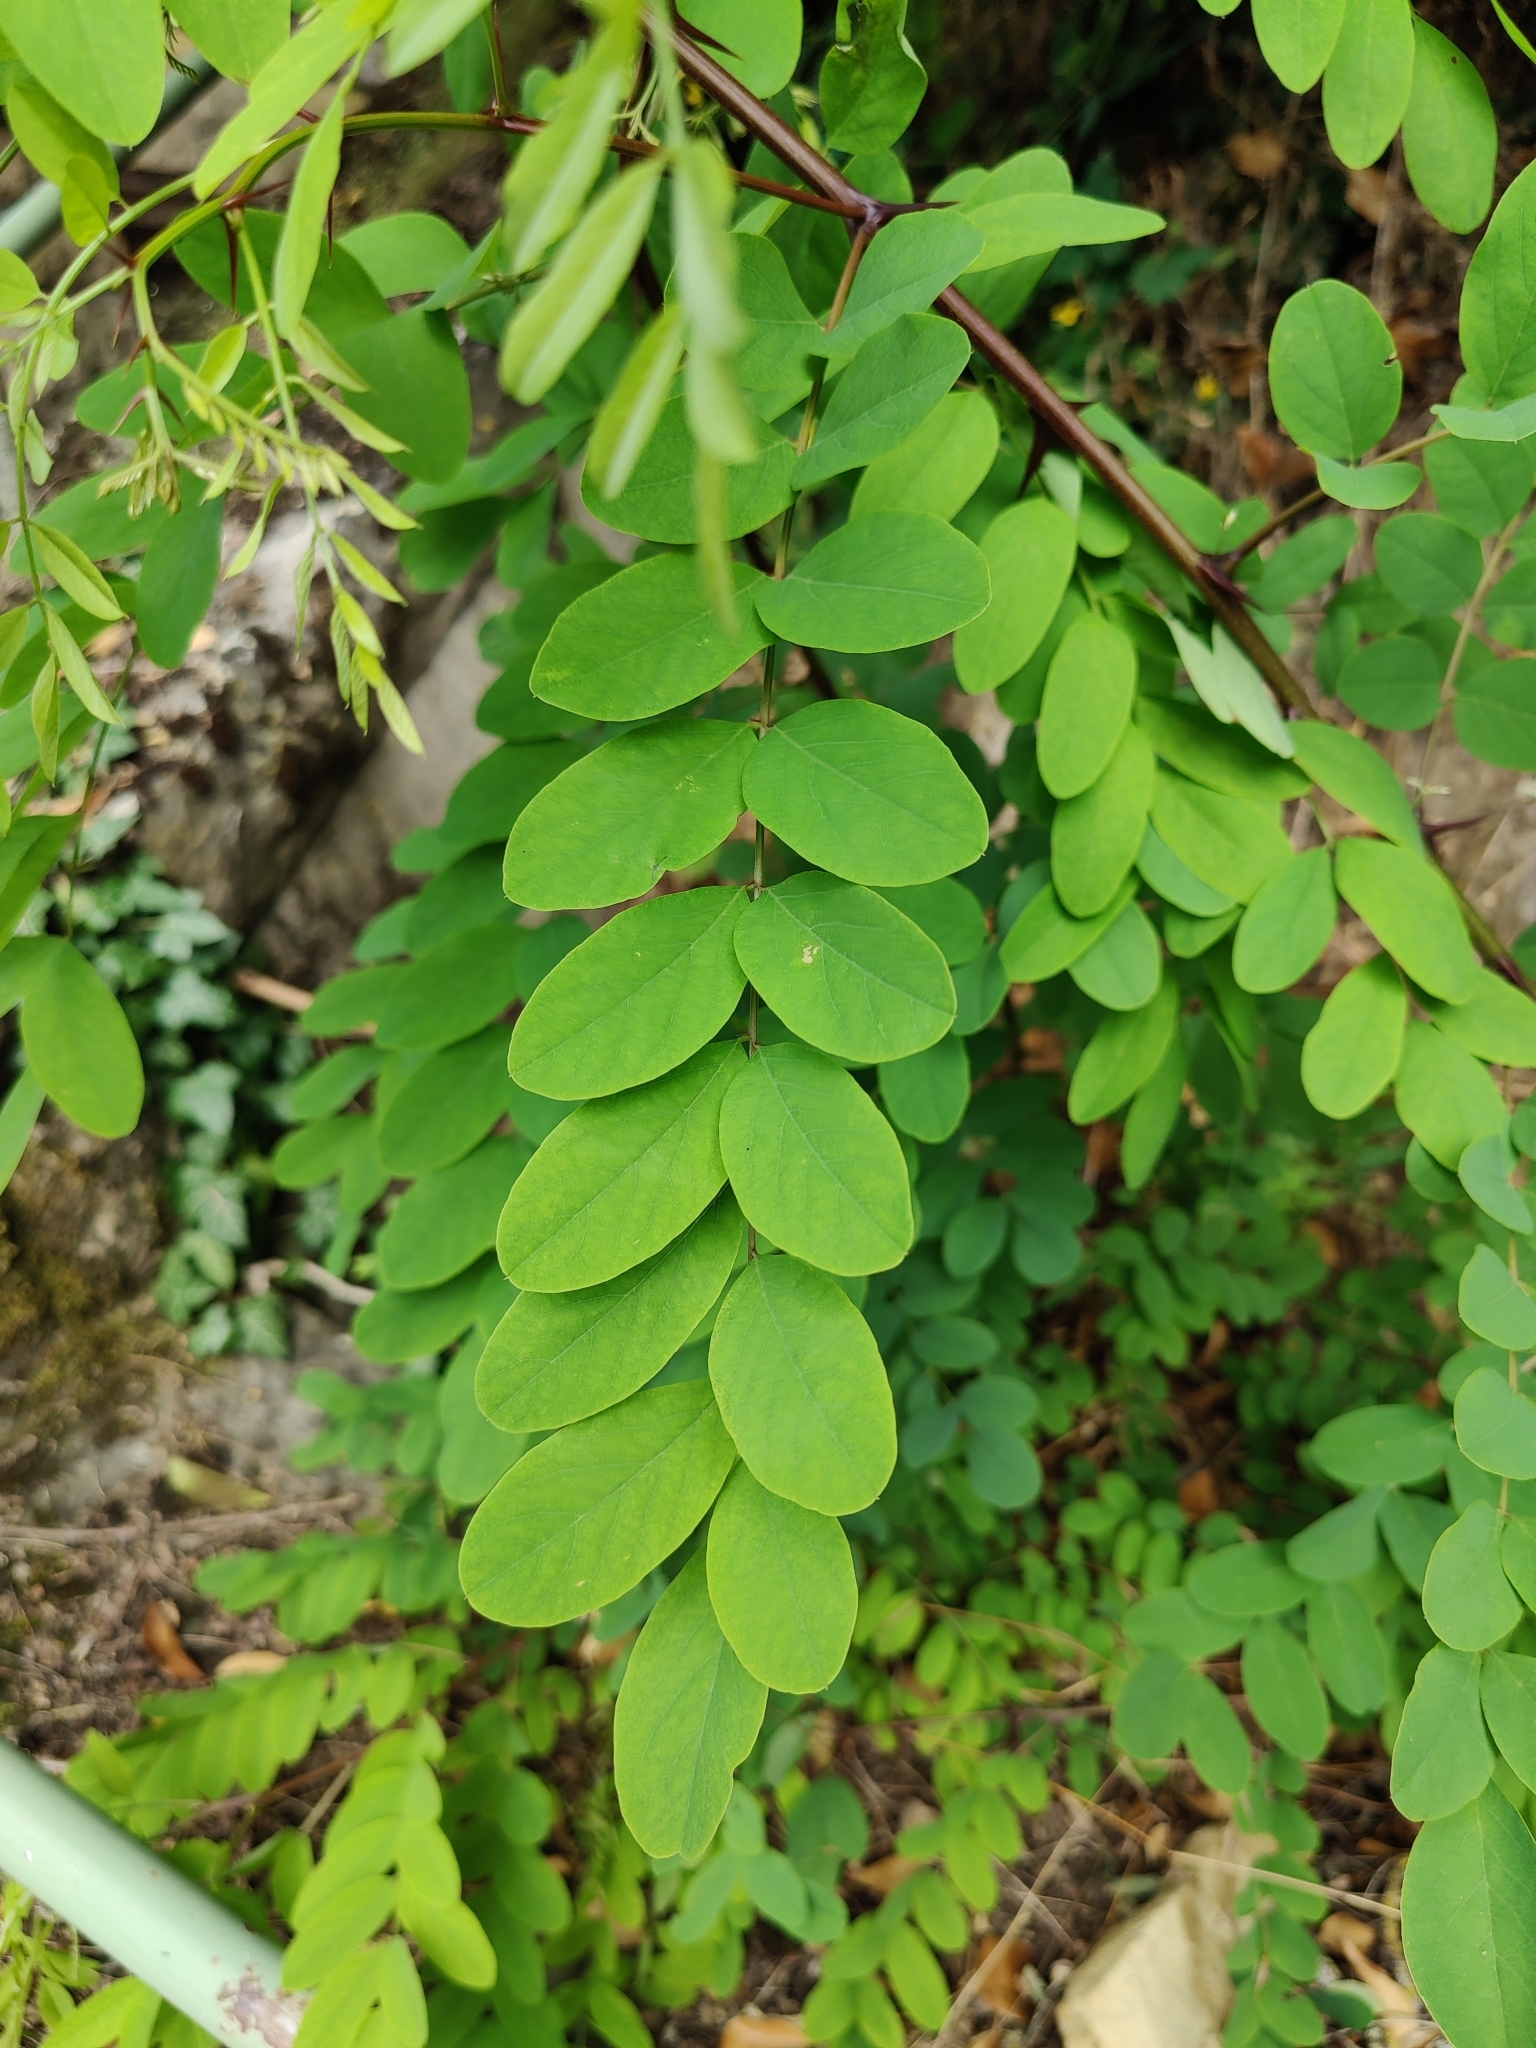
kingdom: Plantae
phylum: Tracheophyta
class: Magnoliopsida
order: Fabales
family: Fabaceae
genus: Robinia
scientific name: Robinia pseudoacacia
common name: Black locust
